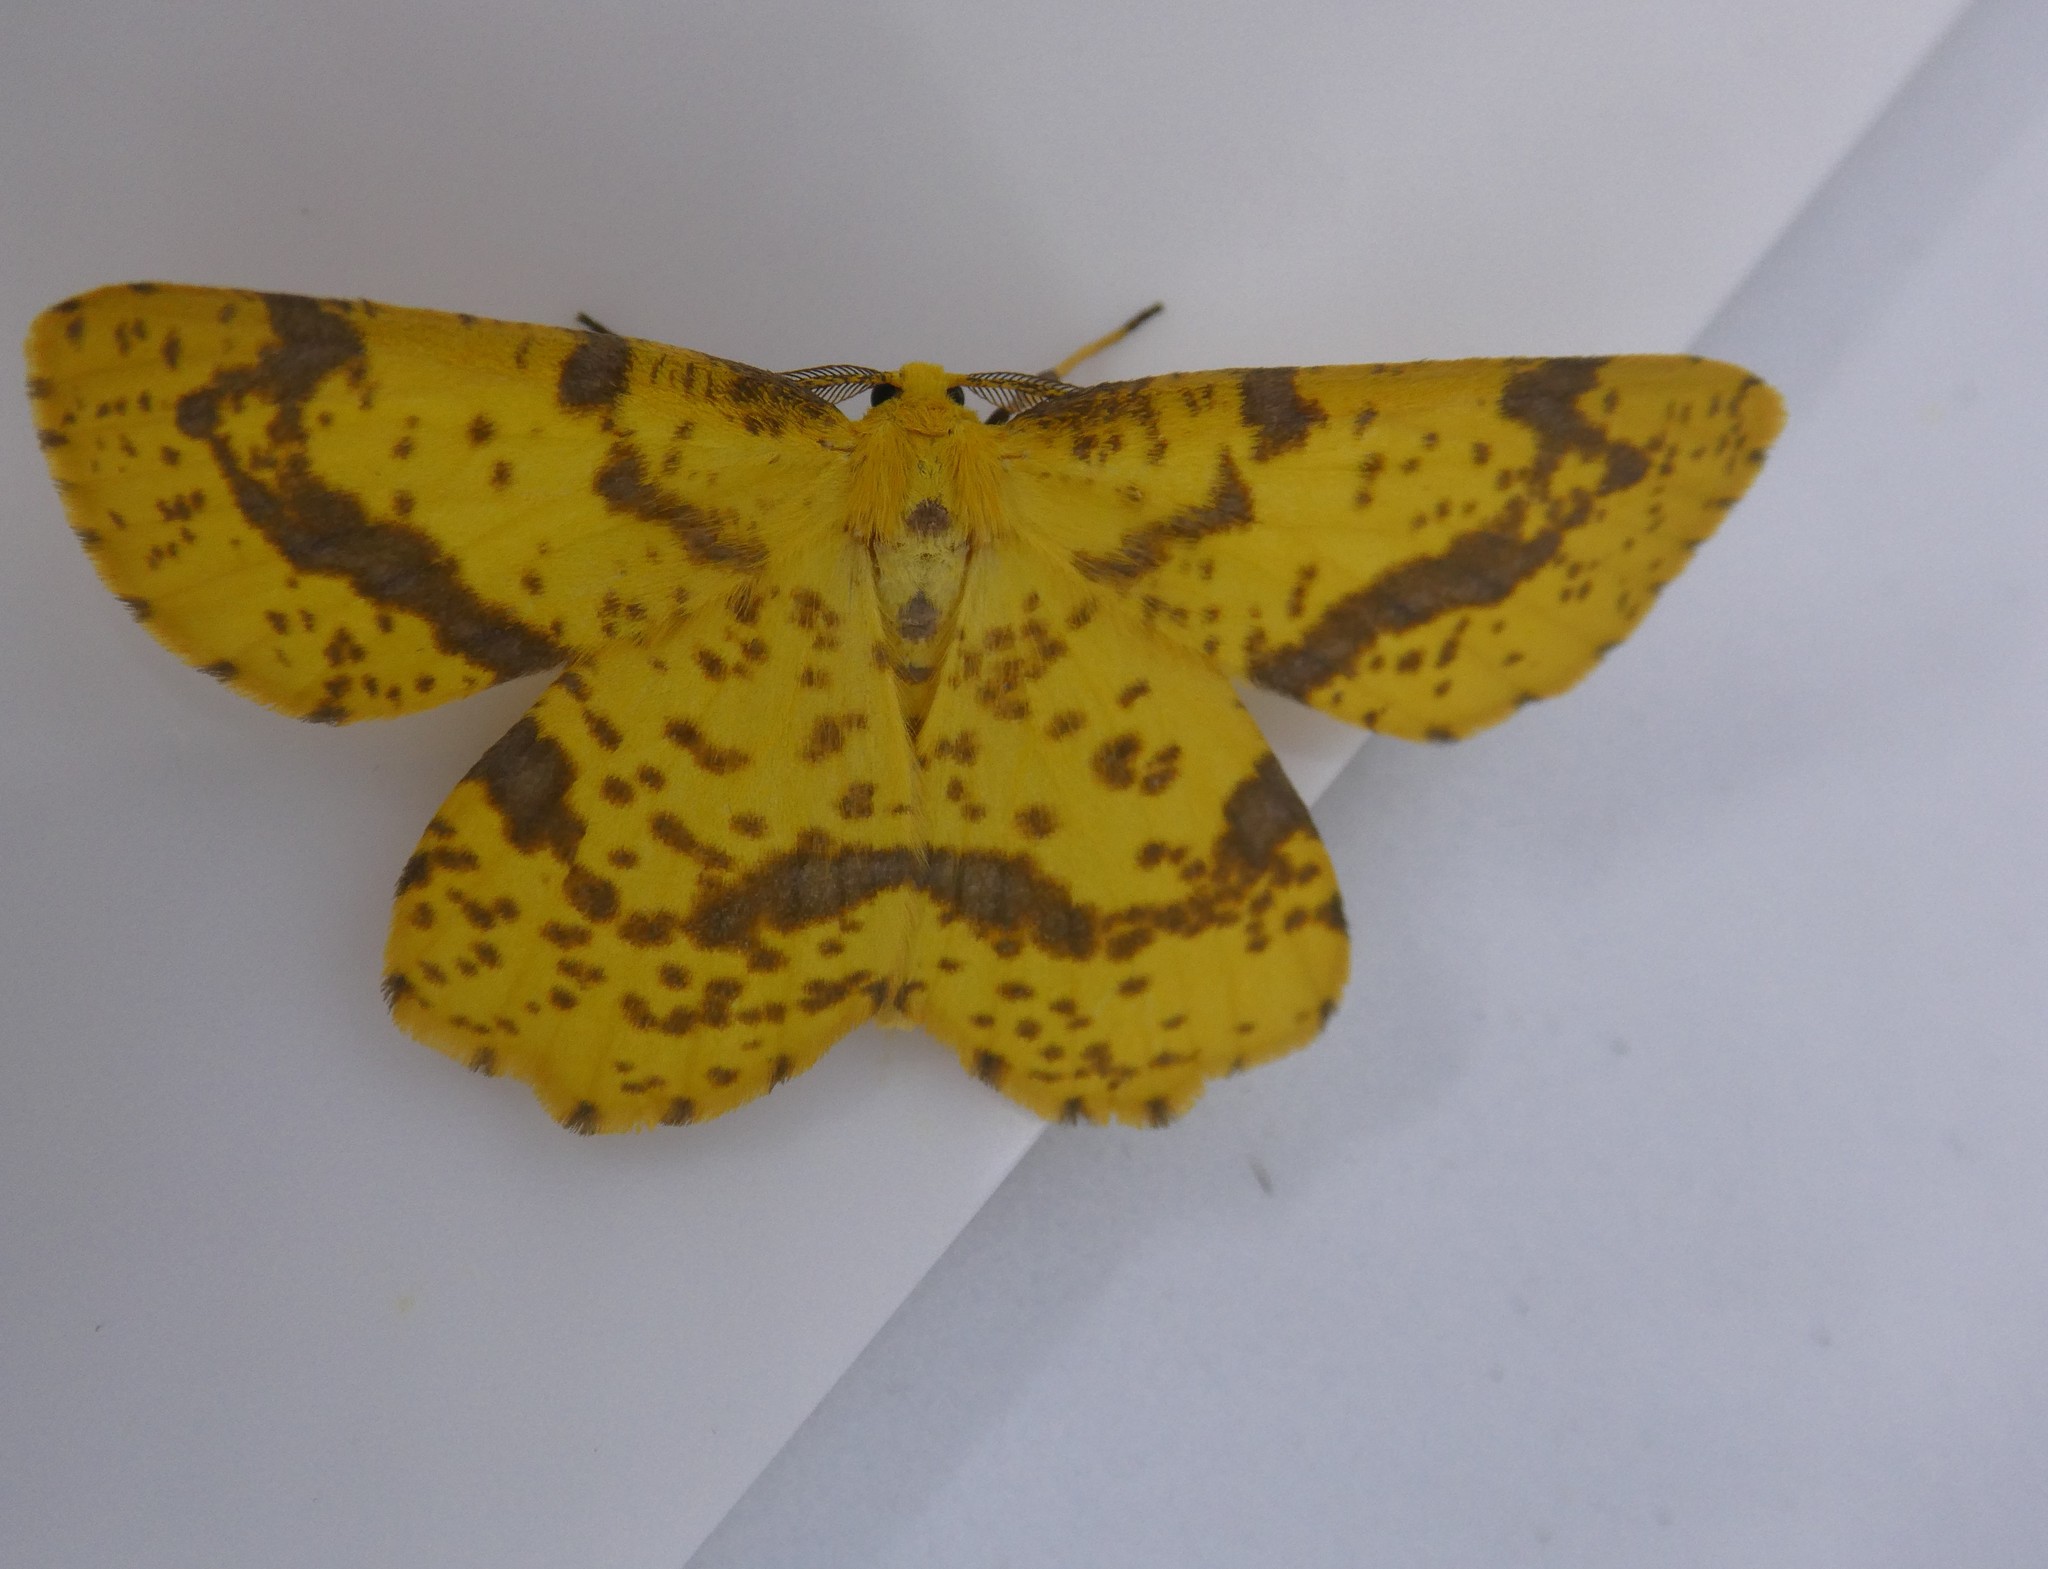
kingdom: Animalia
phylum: Arthropoda
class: Insecta
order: Lepidoptera
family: Geometridae
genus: Xanthotype
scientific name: Xanthotype
